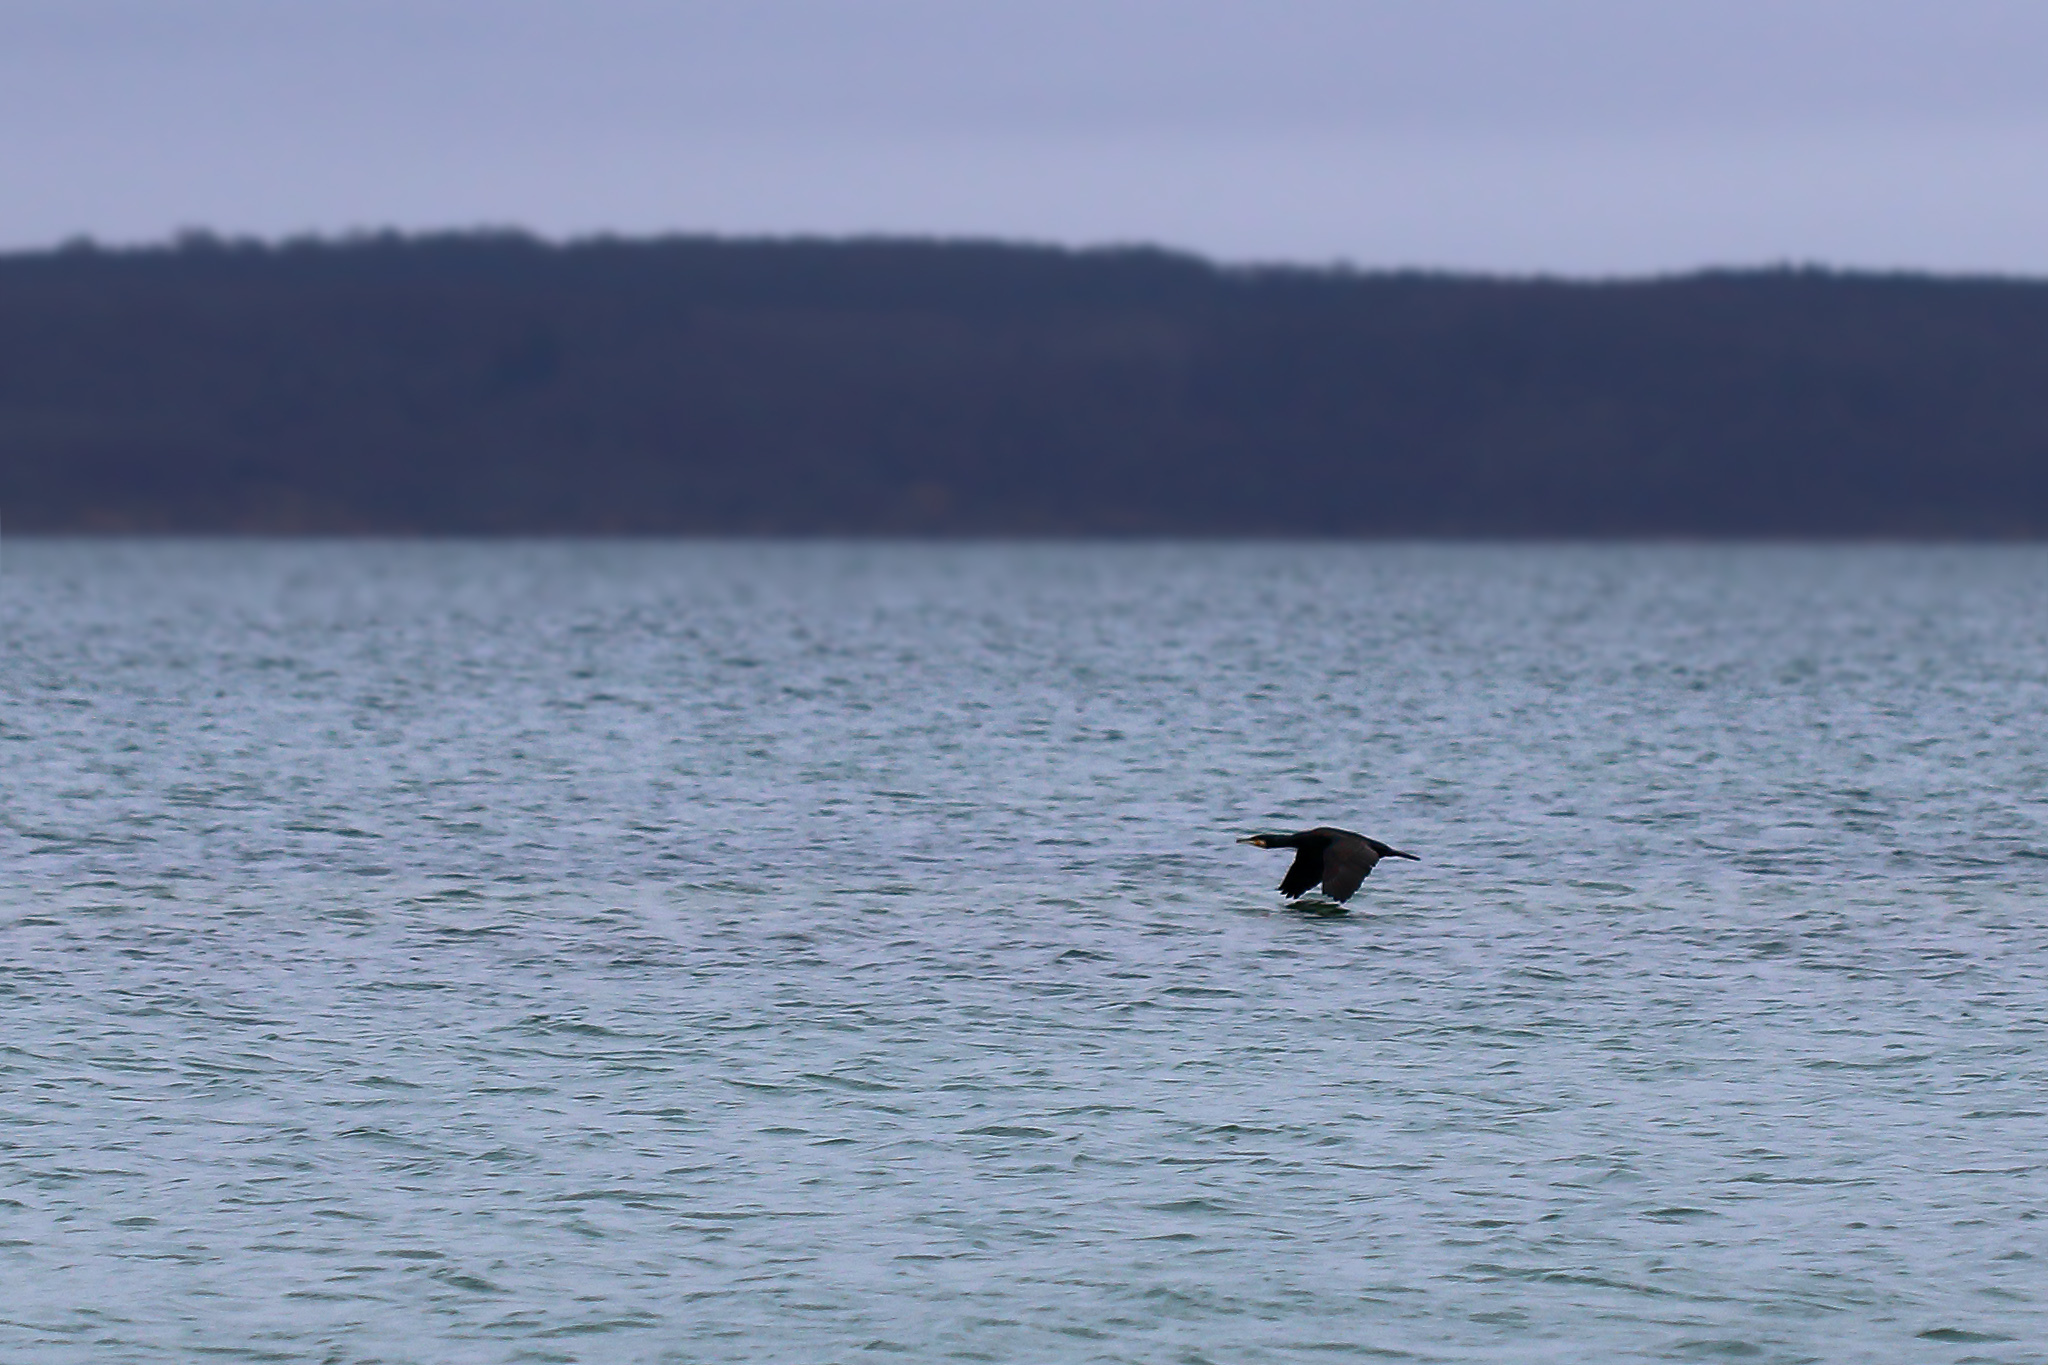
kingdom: Animalia
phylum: Chordata
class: Aves
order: Suliformes
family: Phalacrocoracidae
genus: Phalacrocorax
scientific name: Phalacrocorax carbo
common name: Great cormorant
